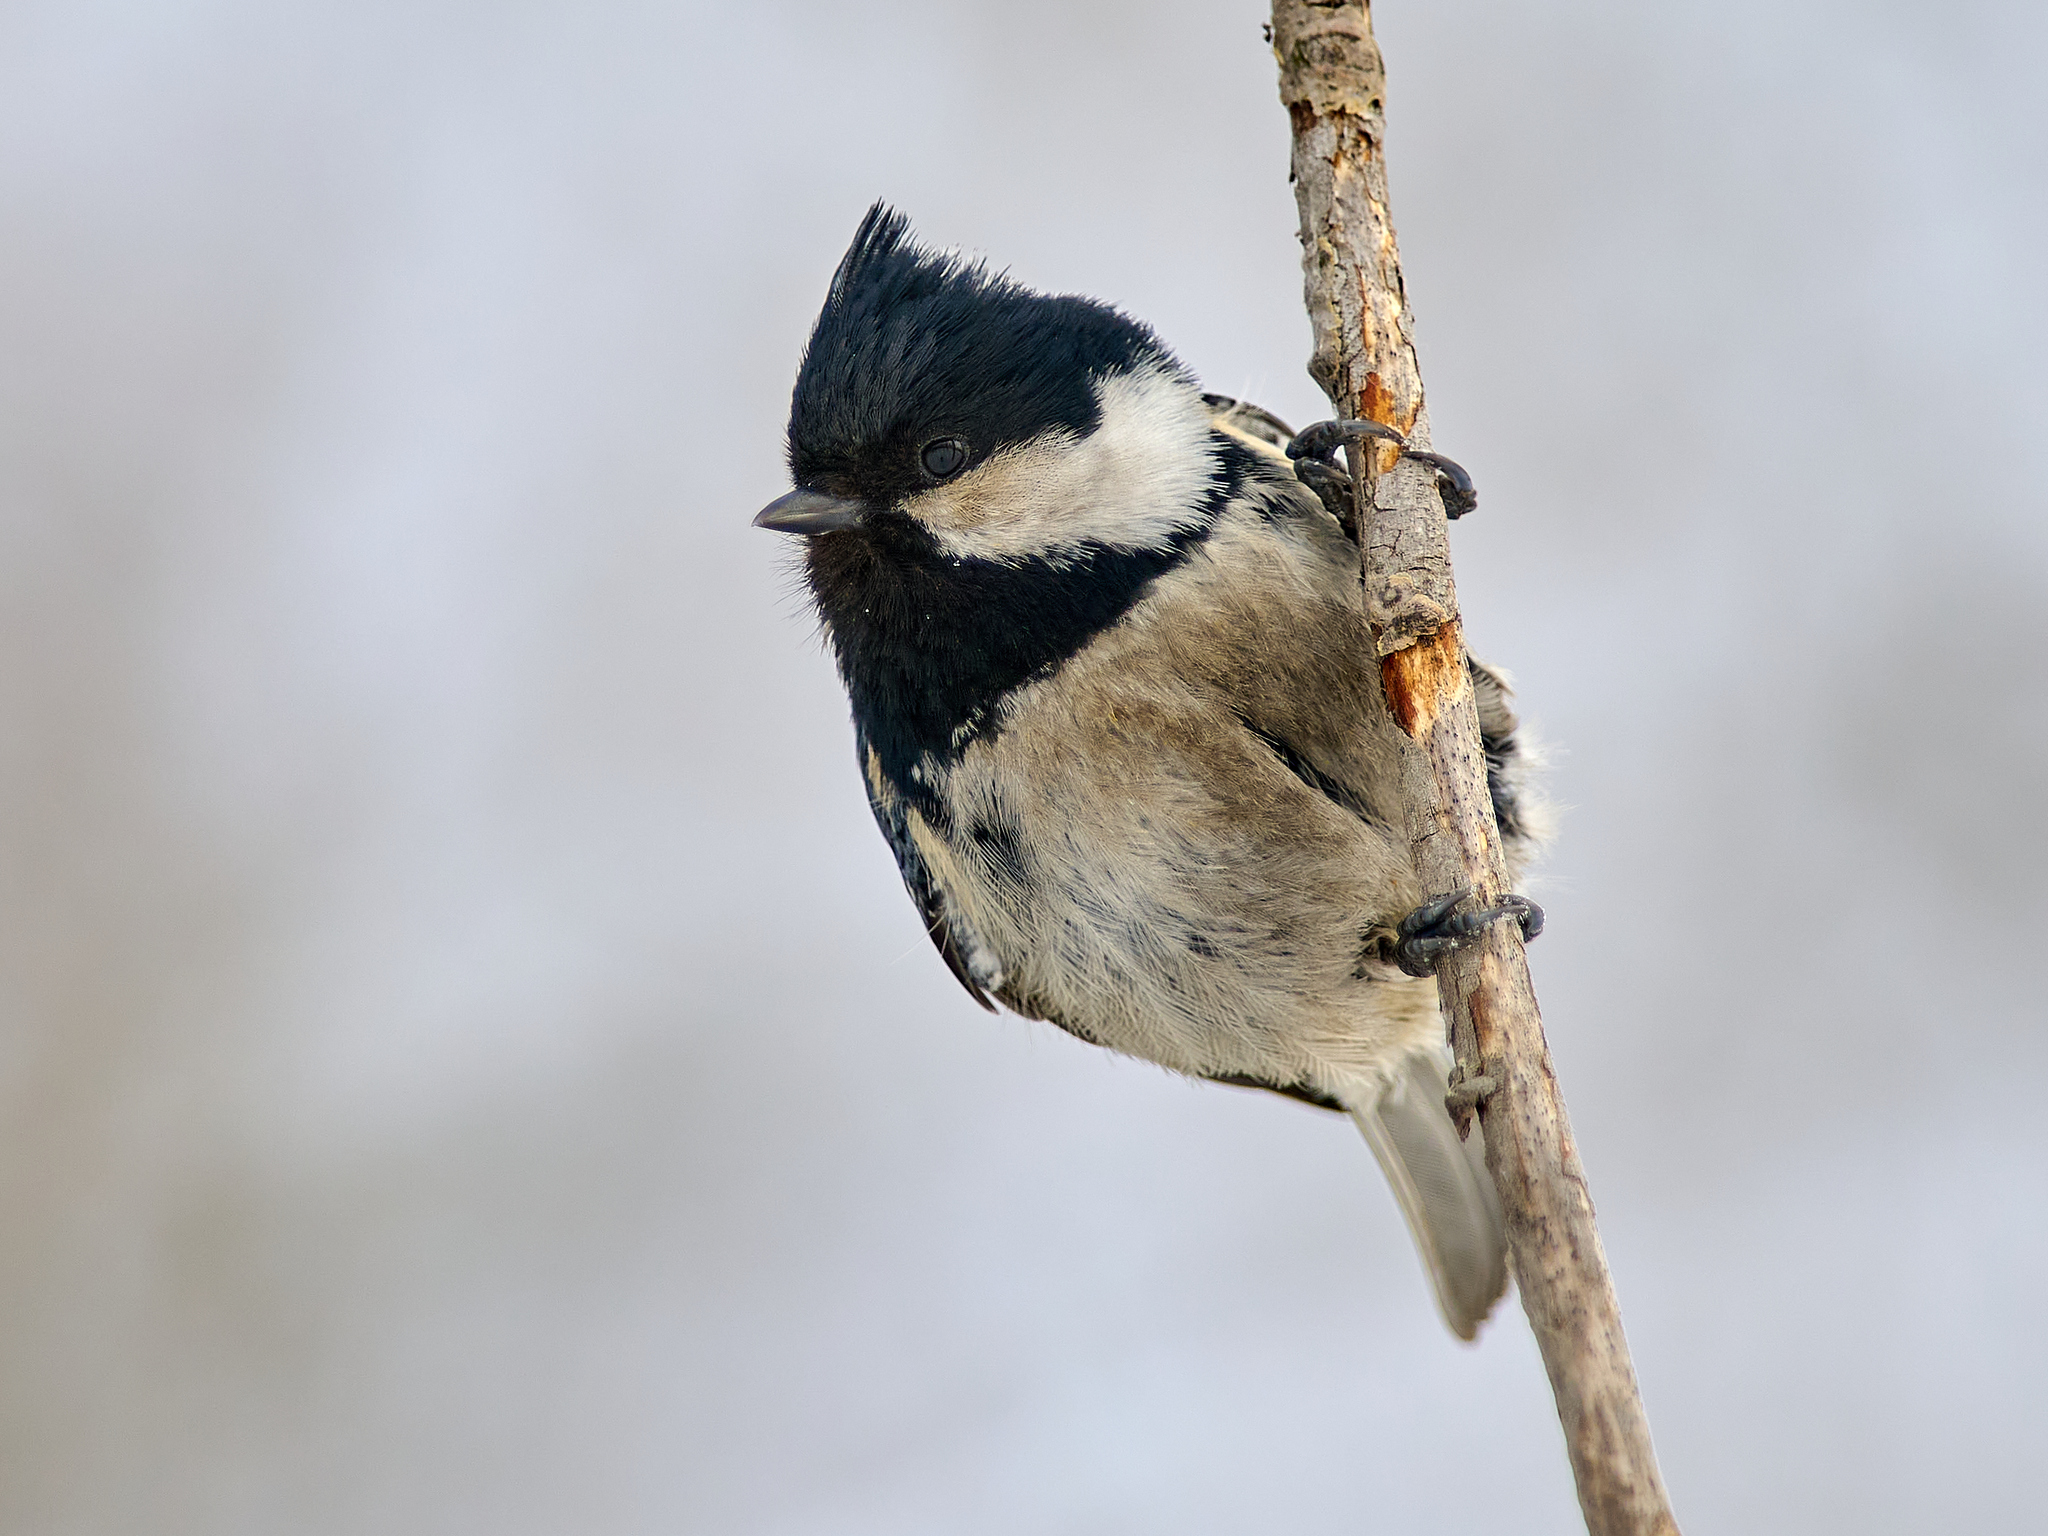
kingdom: Animalia
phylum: Chordata
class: Aves
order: Passeriformes
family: Paridae
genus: Periparus
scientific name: Periparus ater
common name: Coal tit
